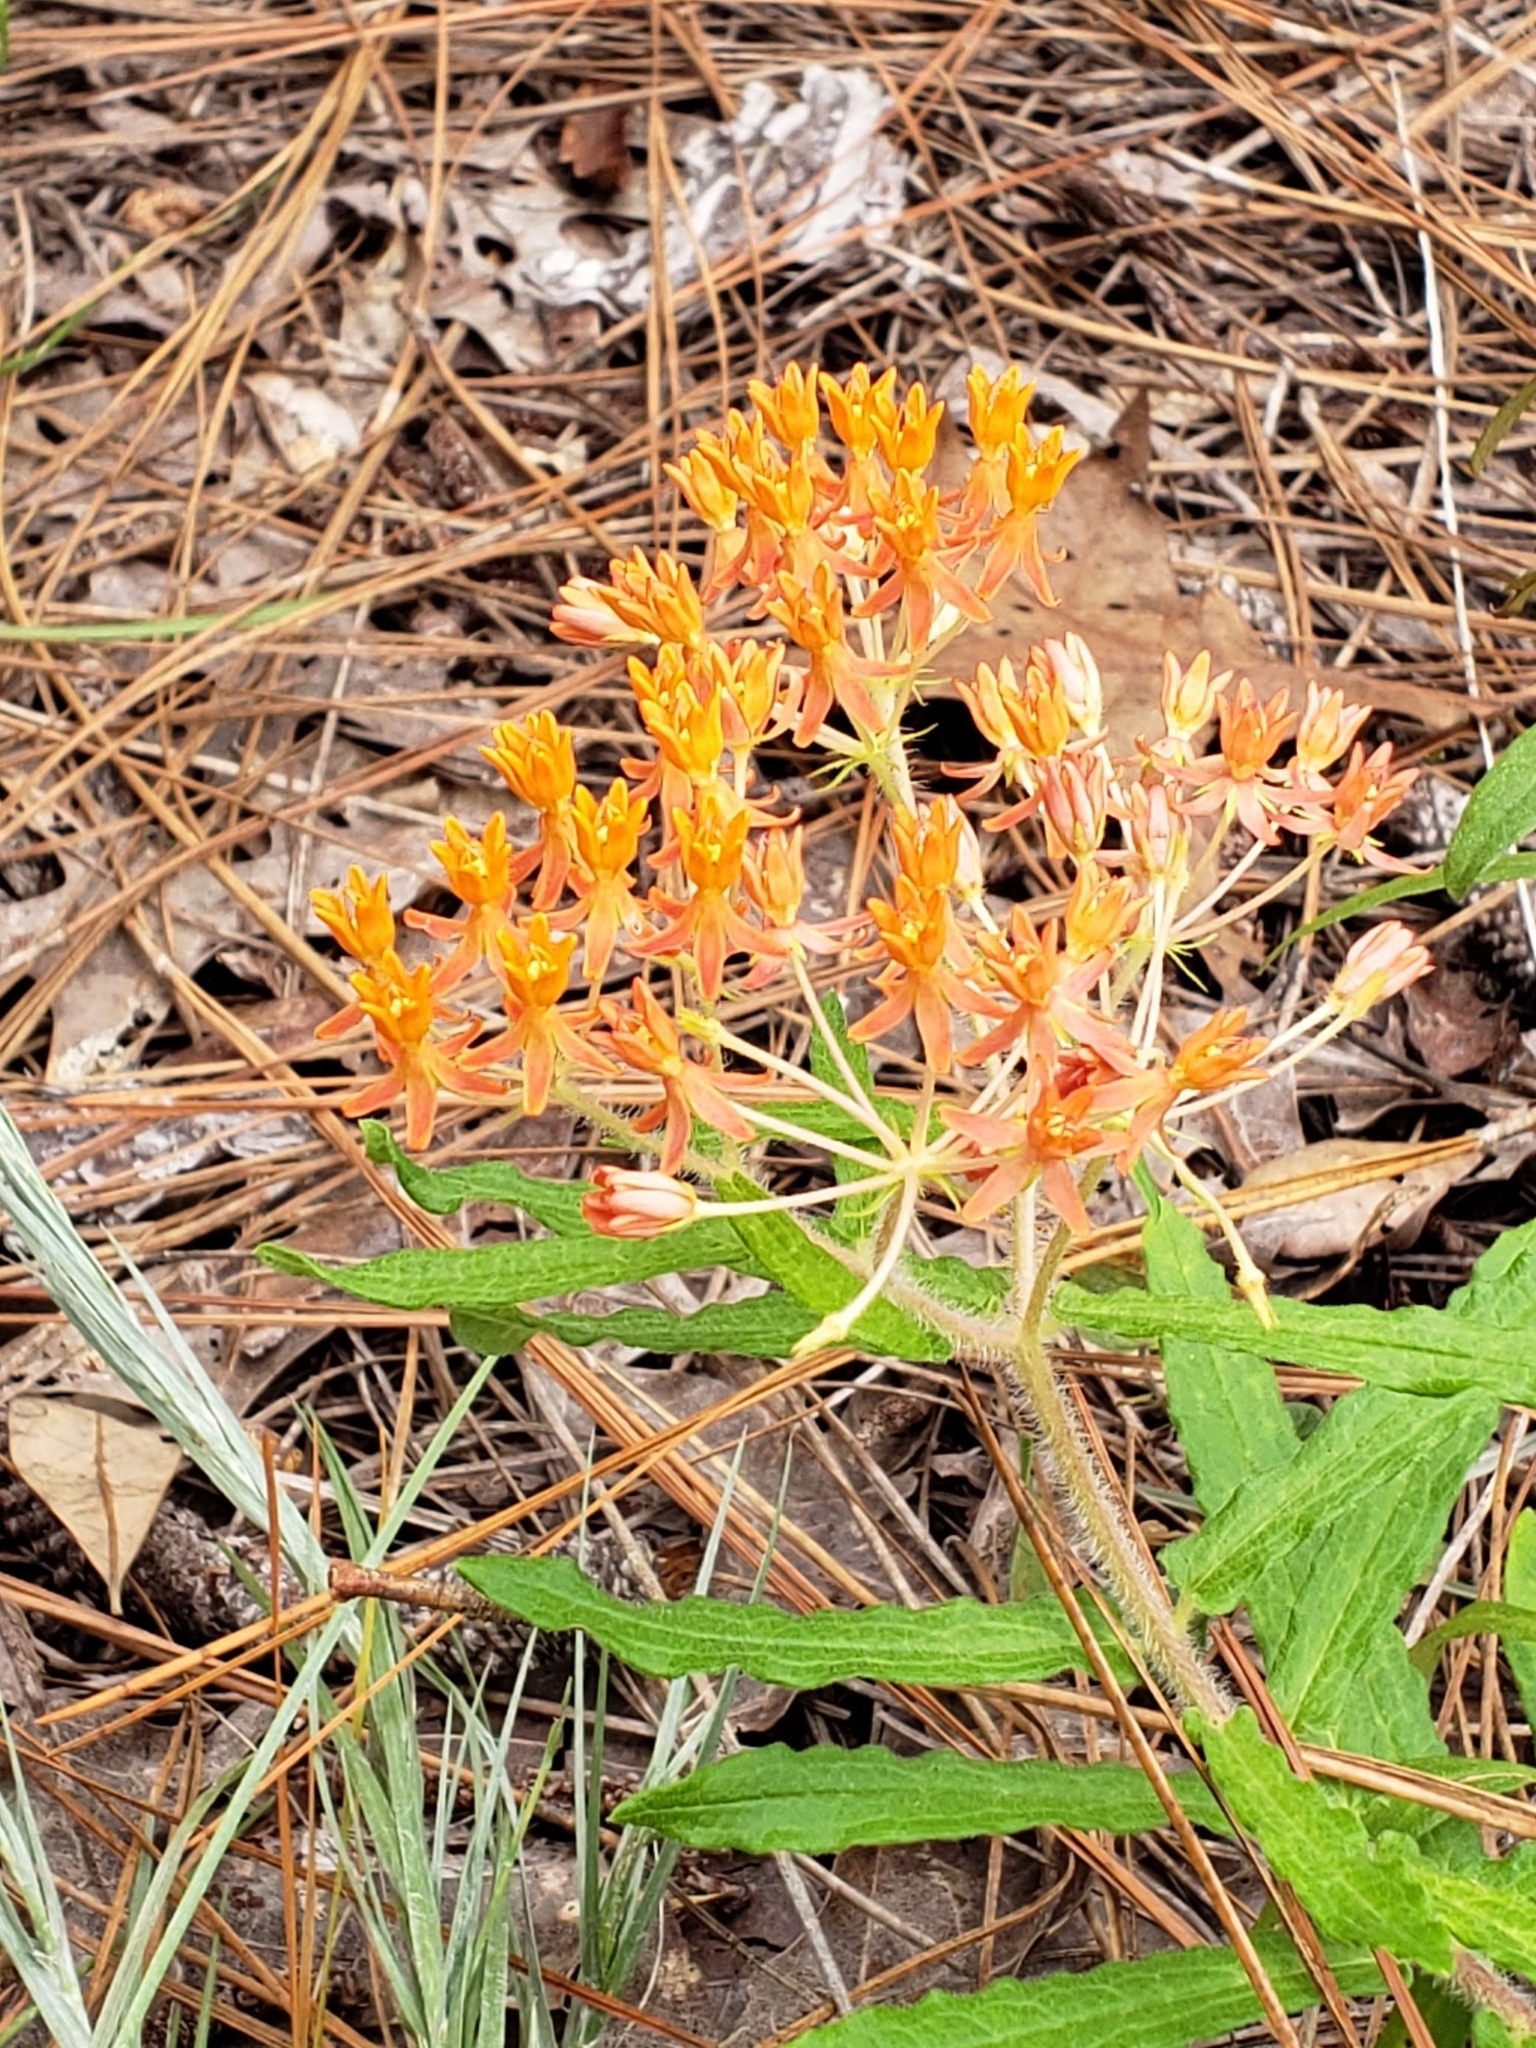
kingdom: Plantae
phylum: Tracheophyta
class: Magnoliopsida
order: Gentianales
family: Apocynaceae
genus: Asclepias
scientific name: Asclepias tuberosa
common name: Butterfly milkweed
